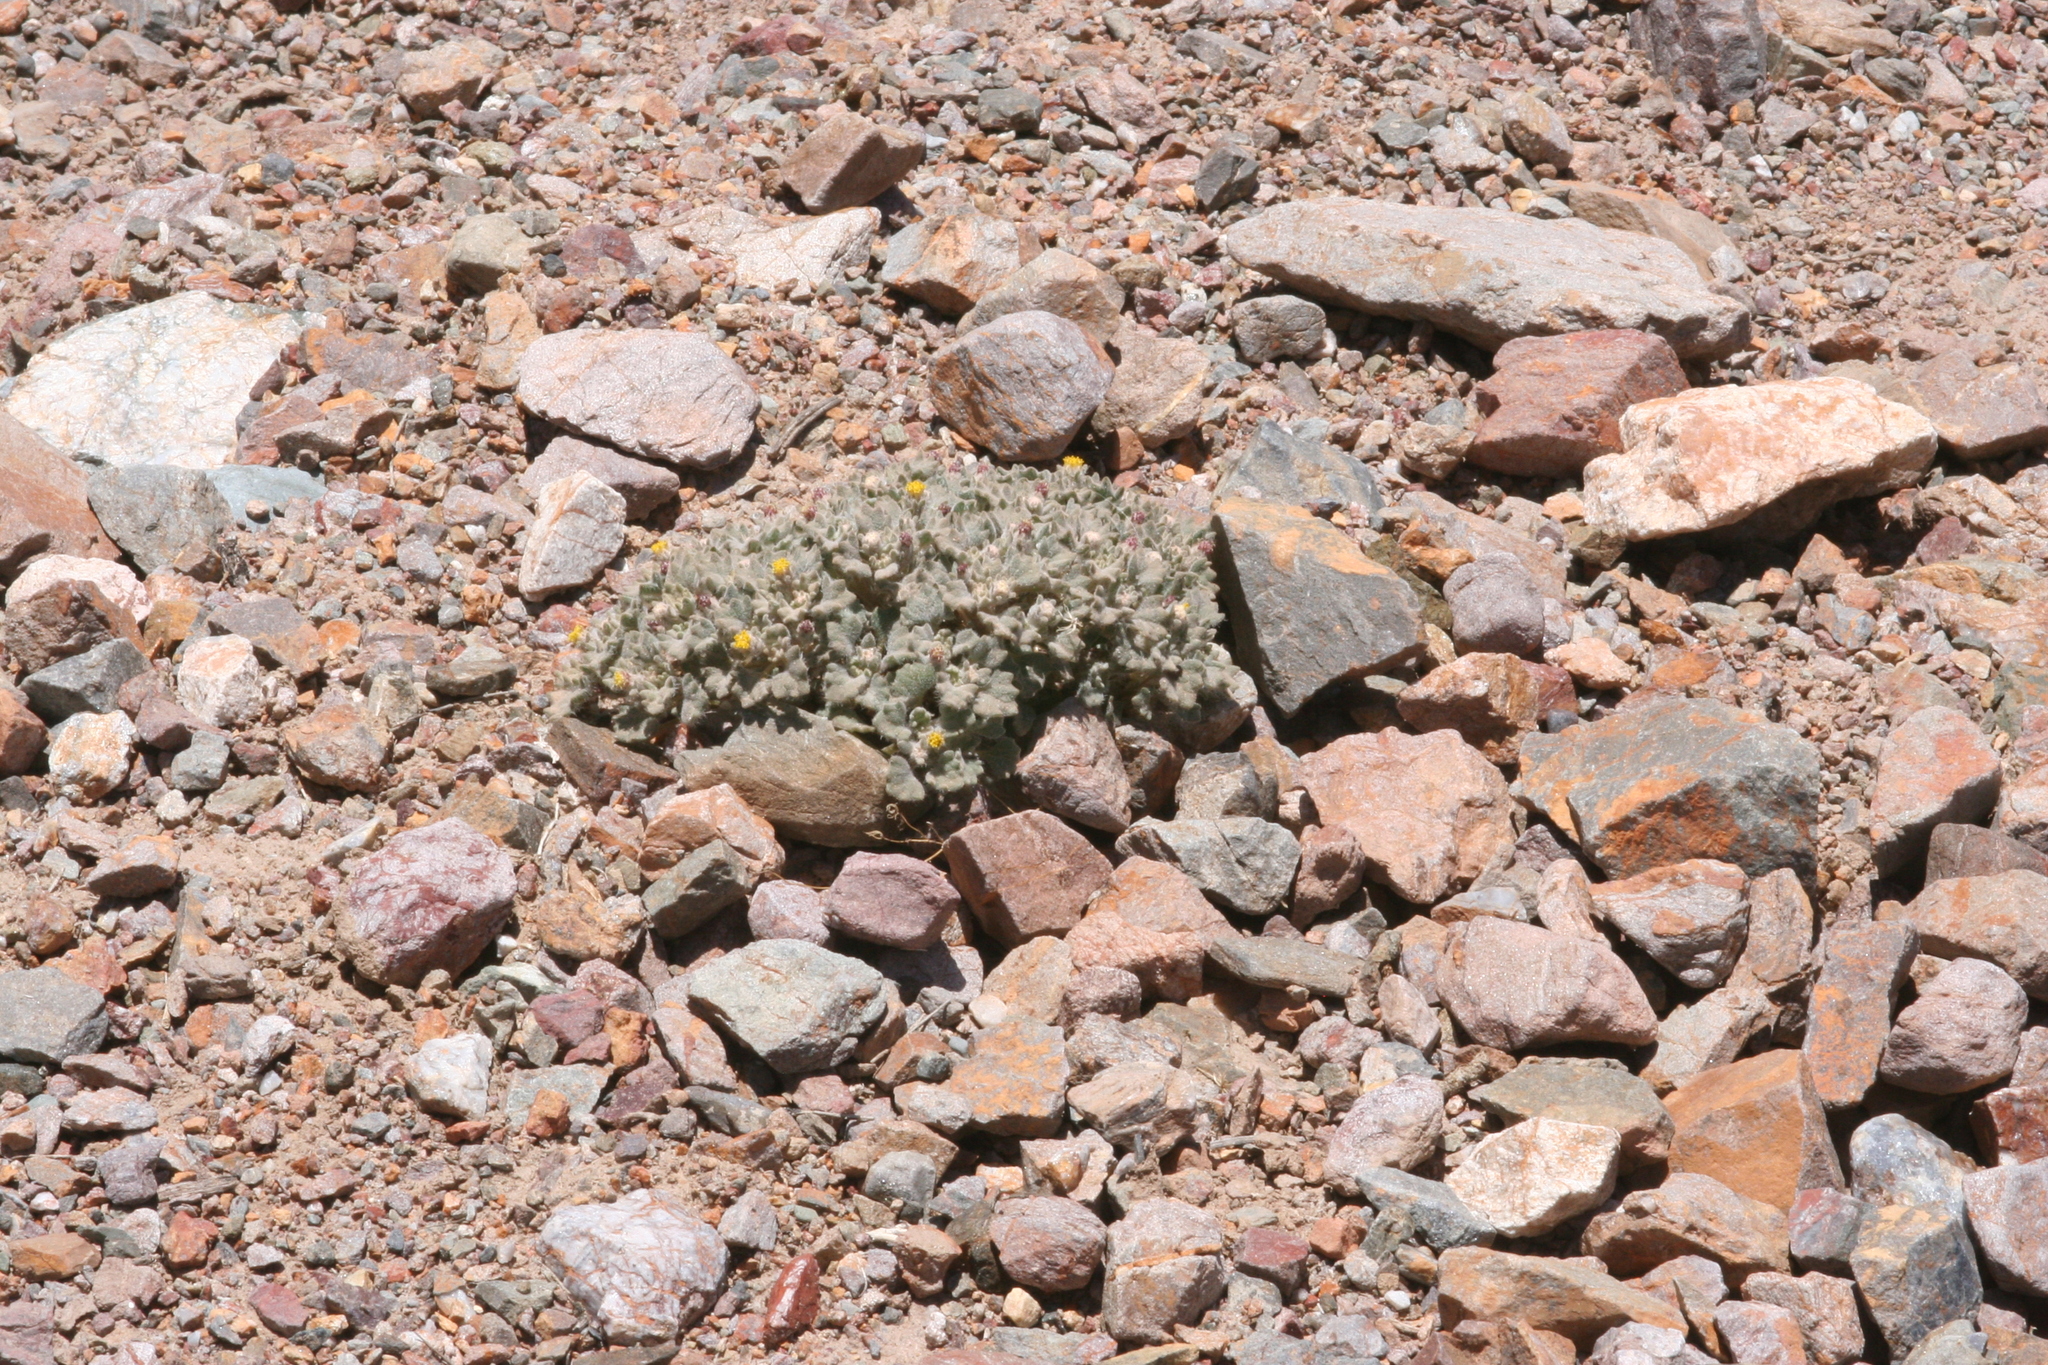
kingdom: Plantae
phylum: Tracheophyta
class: Magnoliopsida
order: Asterales
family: Asteraceae
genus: Psathyrotes
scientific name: Psathyrotes annua
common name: Mealy rosettes
